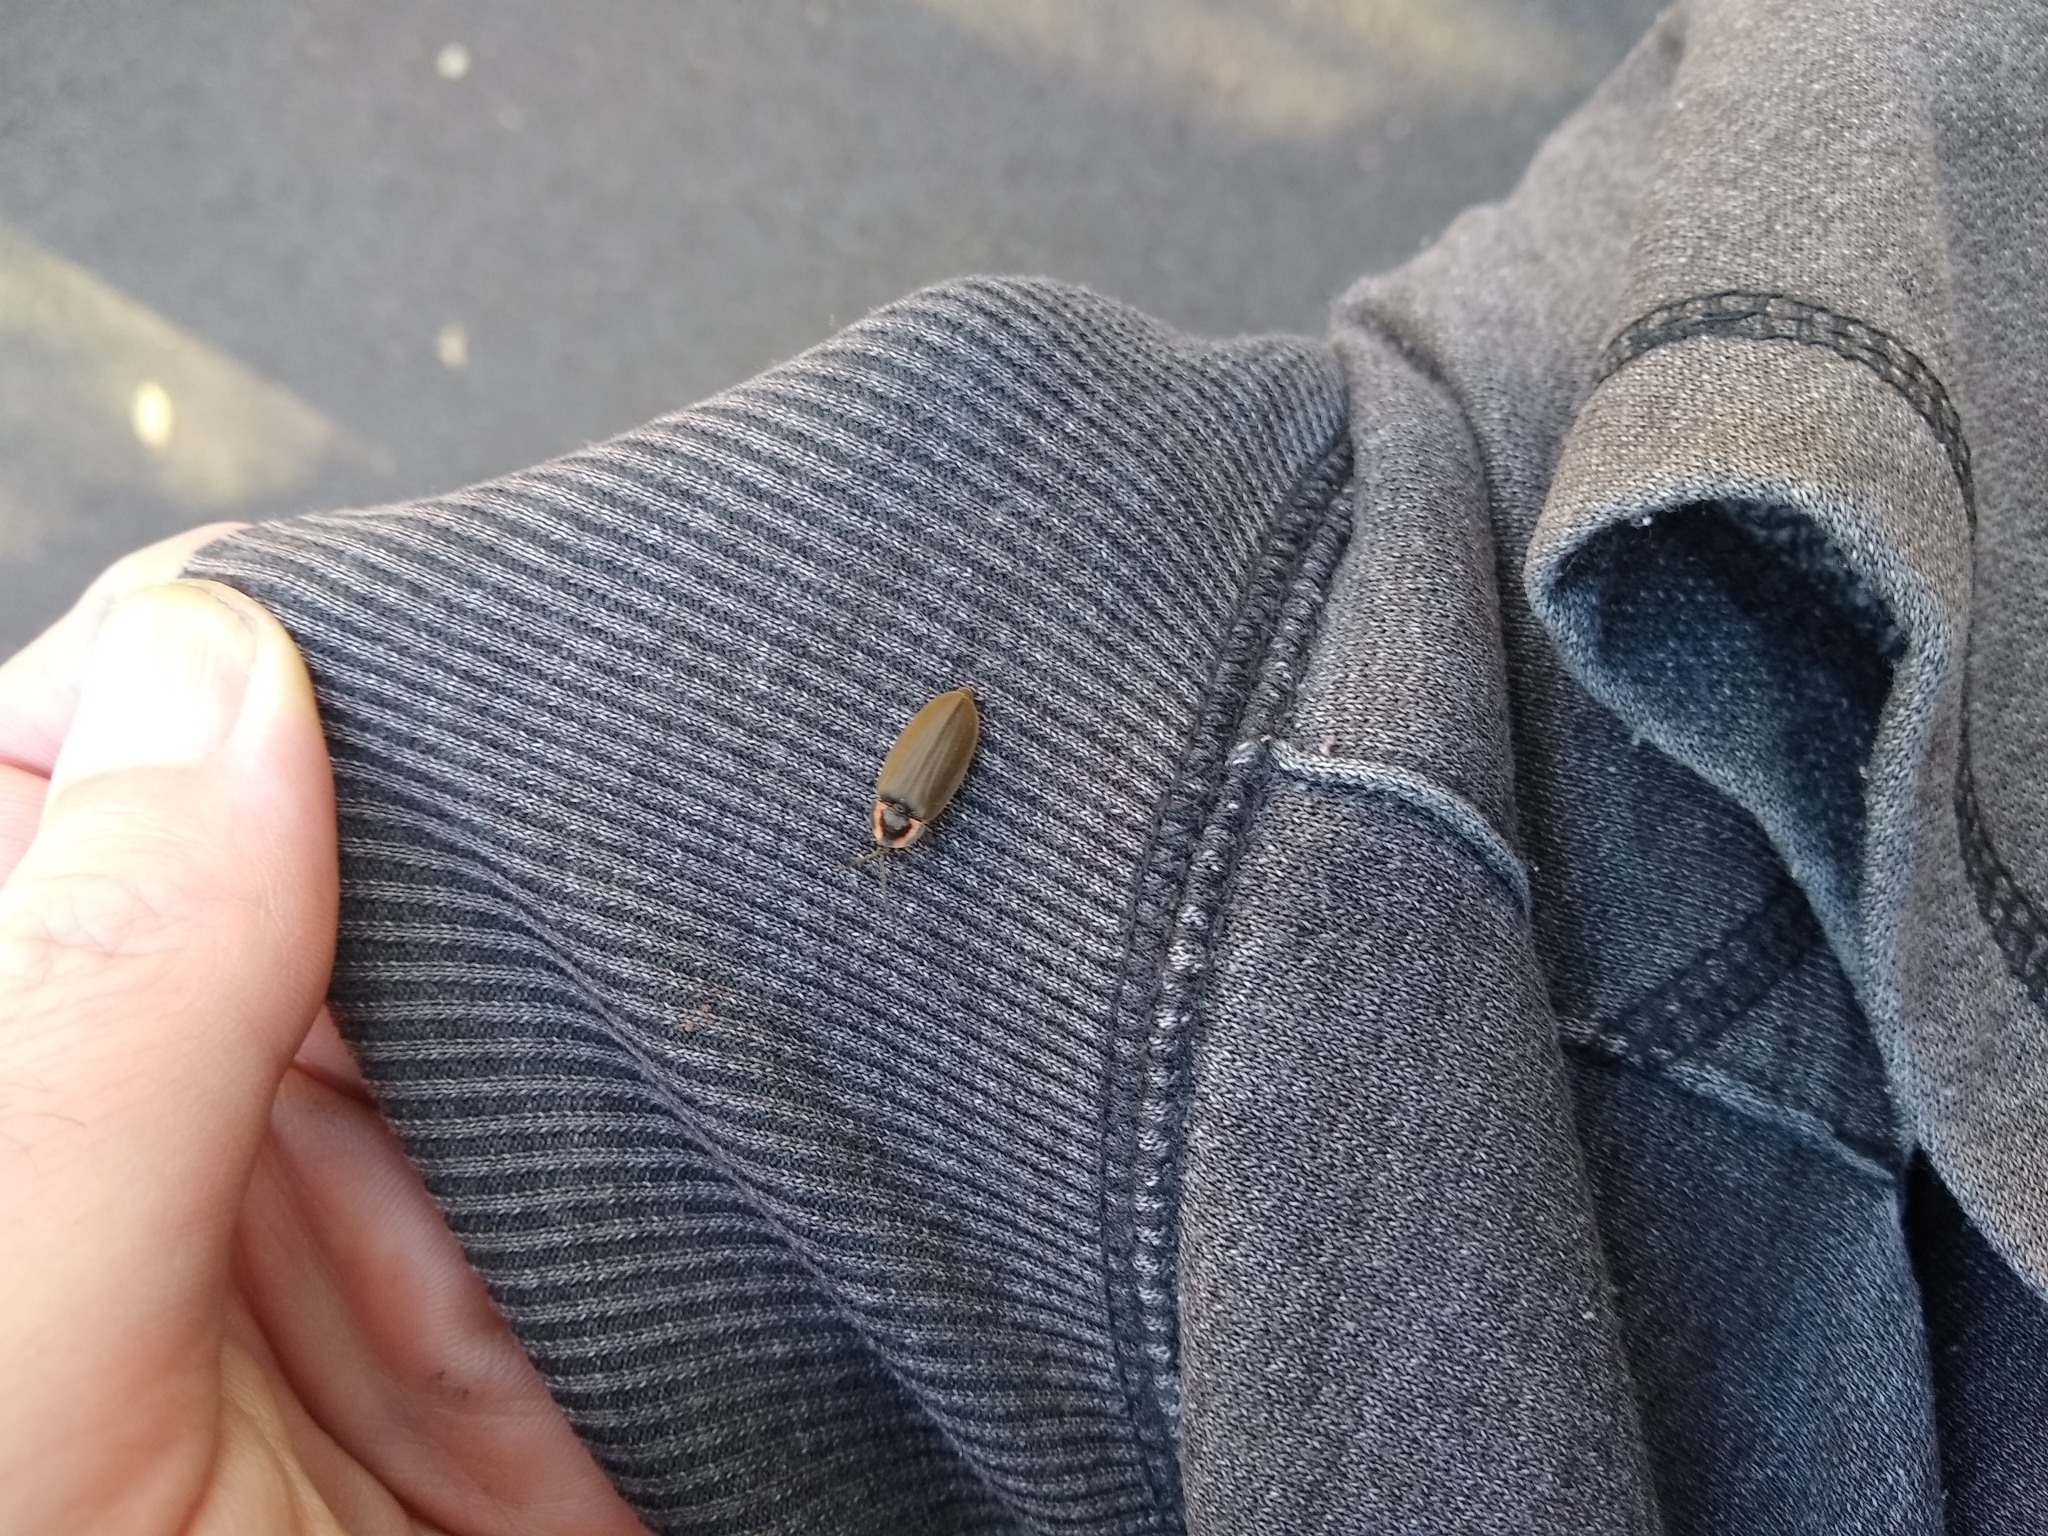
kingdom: Animalia
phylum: Arthropoda
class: Insecta
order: Coleoptera
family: Lampyridae
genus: Photinus
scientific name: Photinus corrusca
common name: Winter firefly
